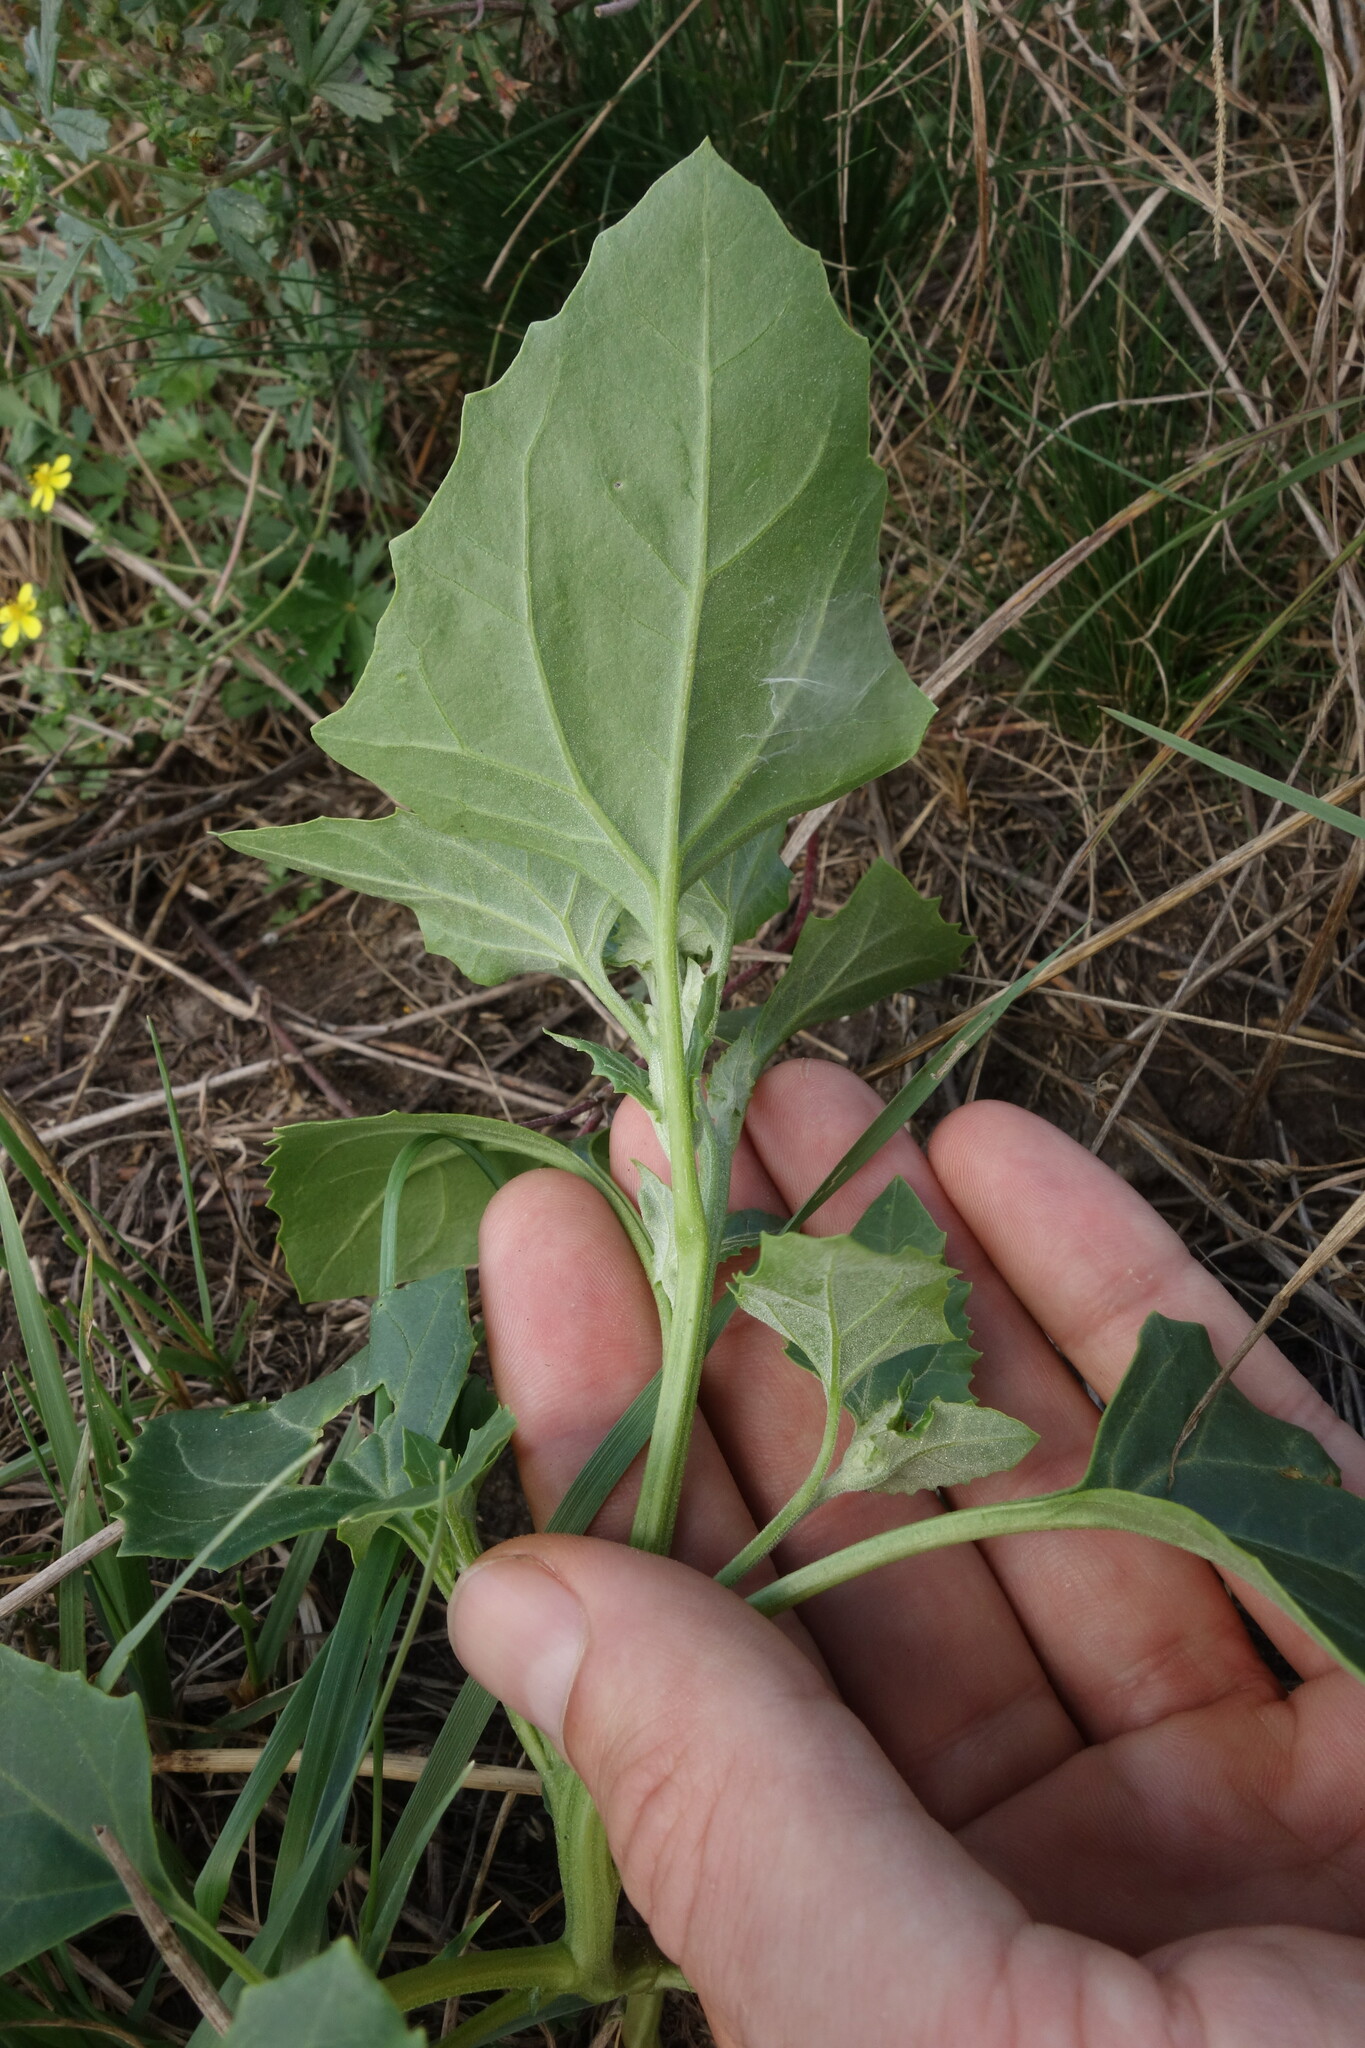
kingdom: Plantae
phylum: Tracheophyta
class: Magnoliopsida
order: Caryophyllales
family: Amaranthaceae
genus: Oxybasis
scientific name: Oxybasis urbica
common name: City goosefoot
